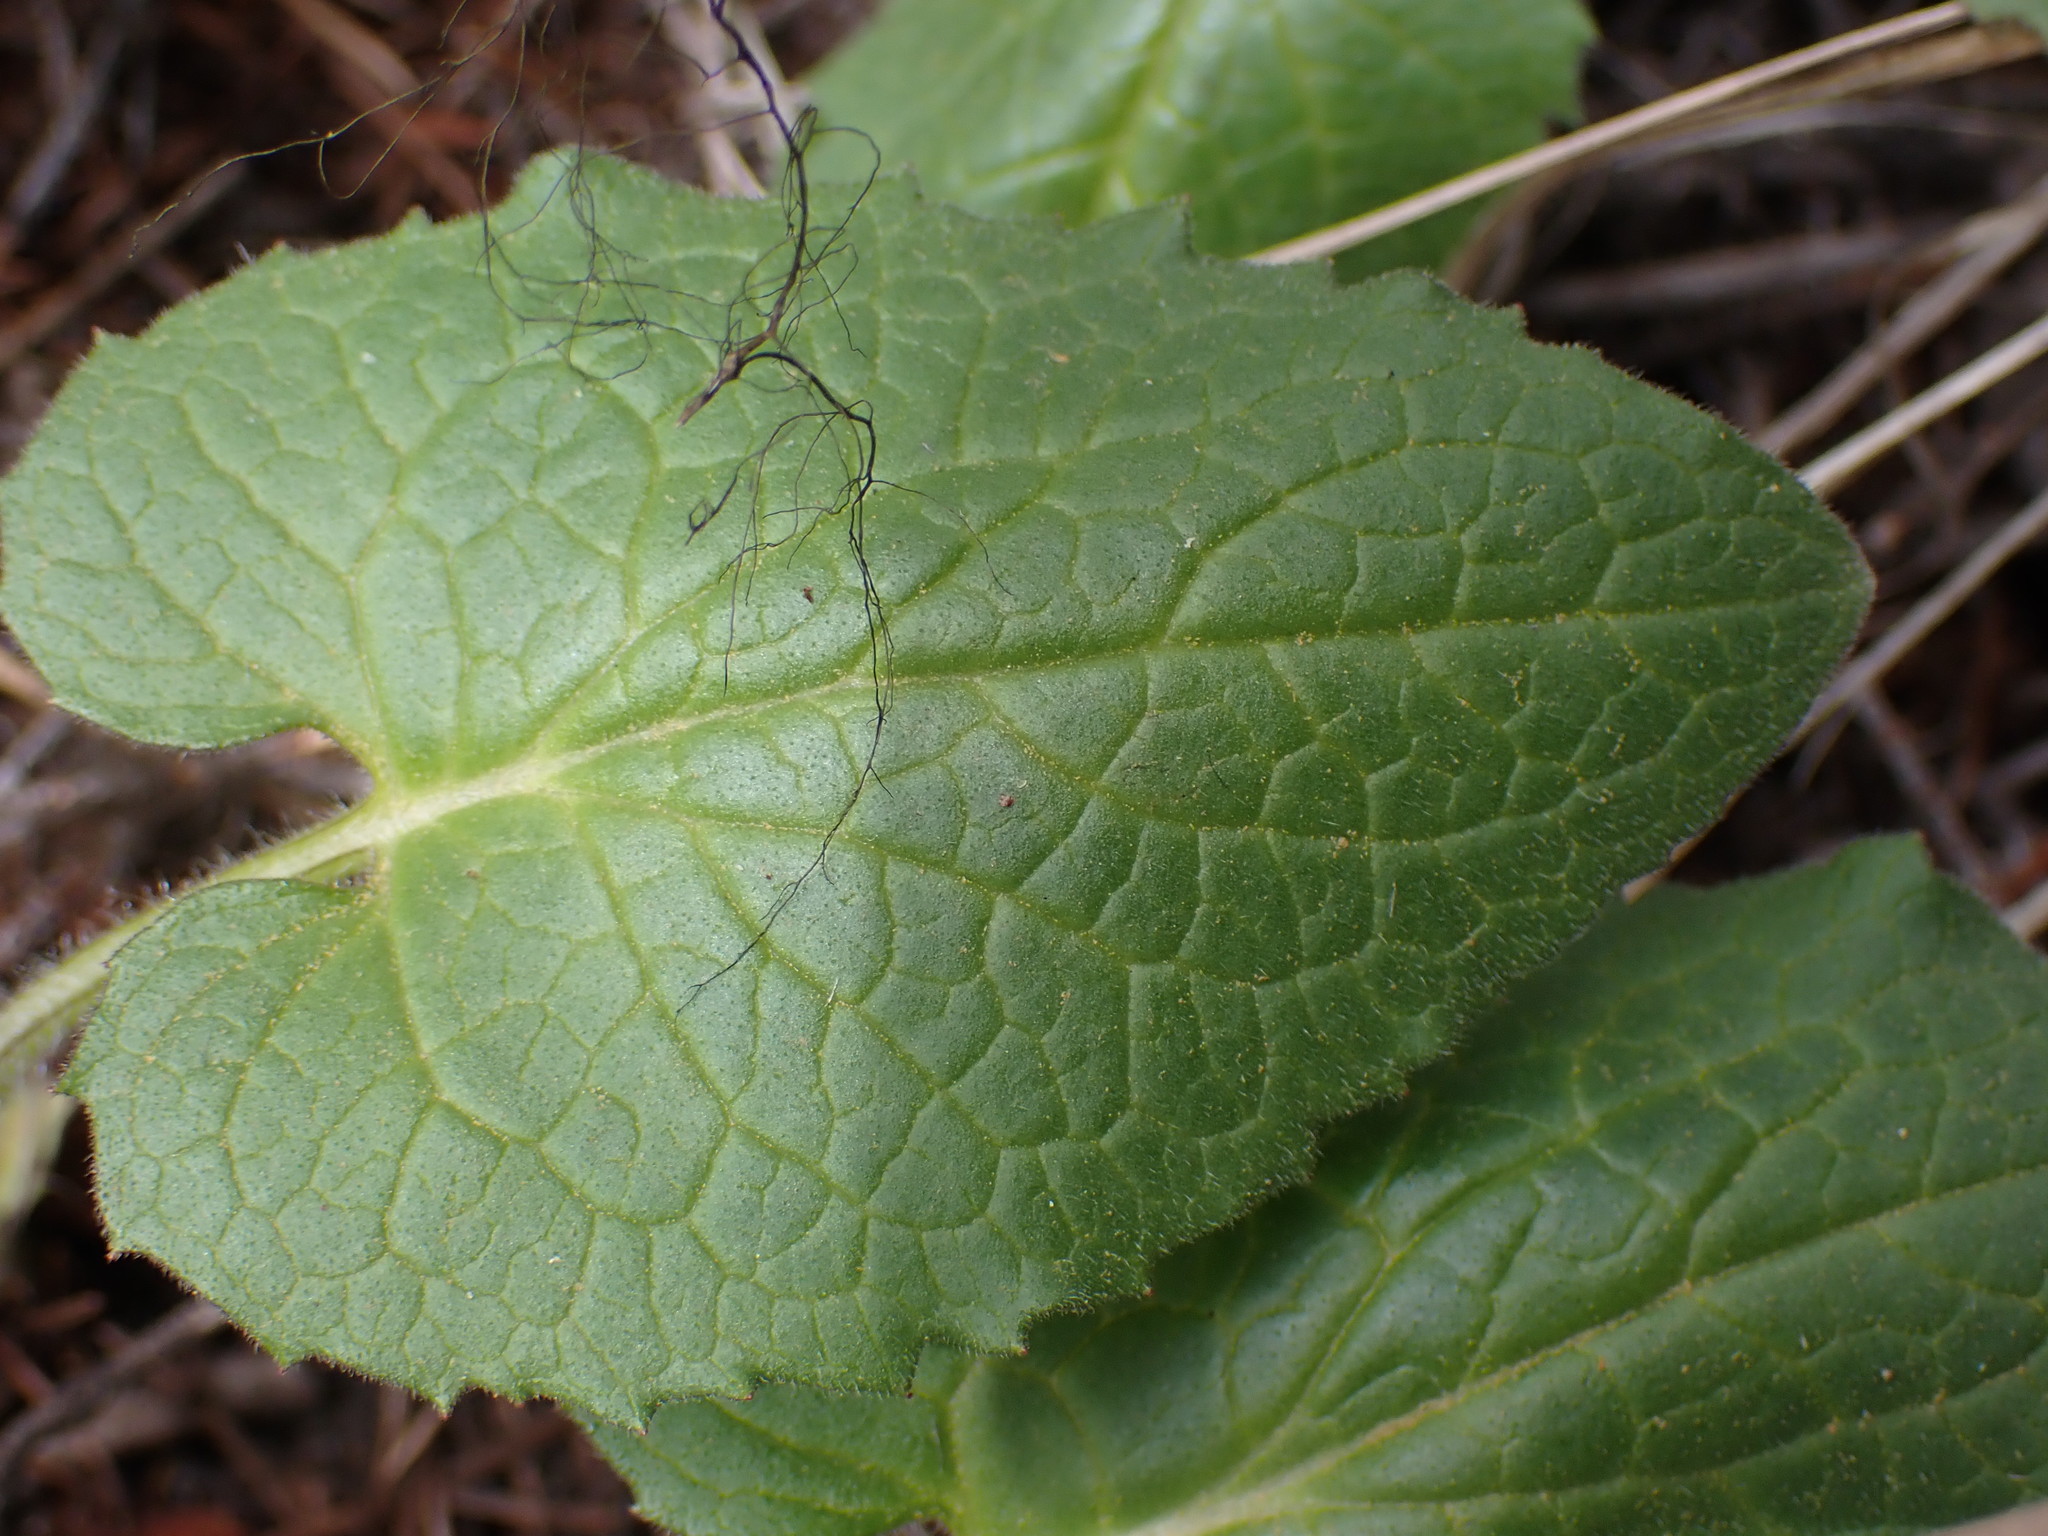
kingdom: Plantae
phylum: Tracheophyta
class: Magnoliopsida
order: Asterales
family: Asteraceae
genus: Arnica
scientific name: Arnica cordifolia
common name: Heart-leaf arnica
